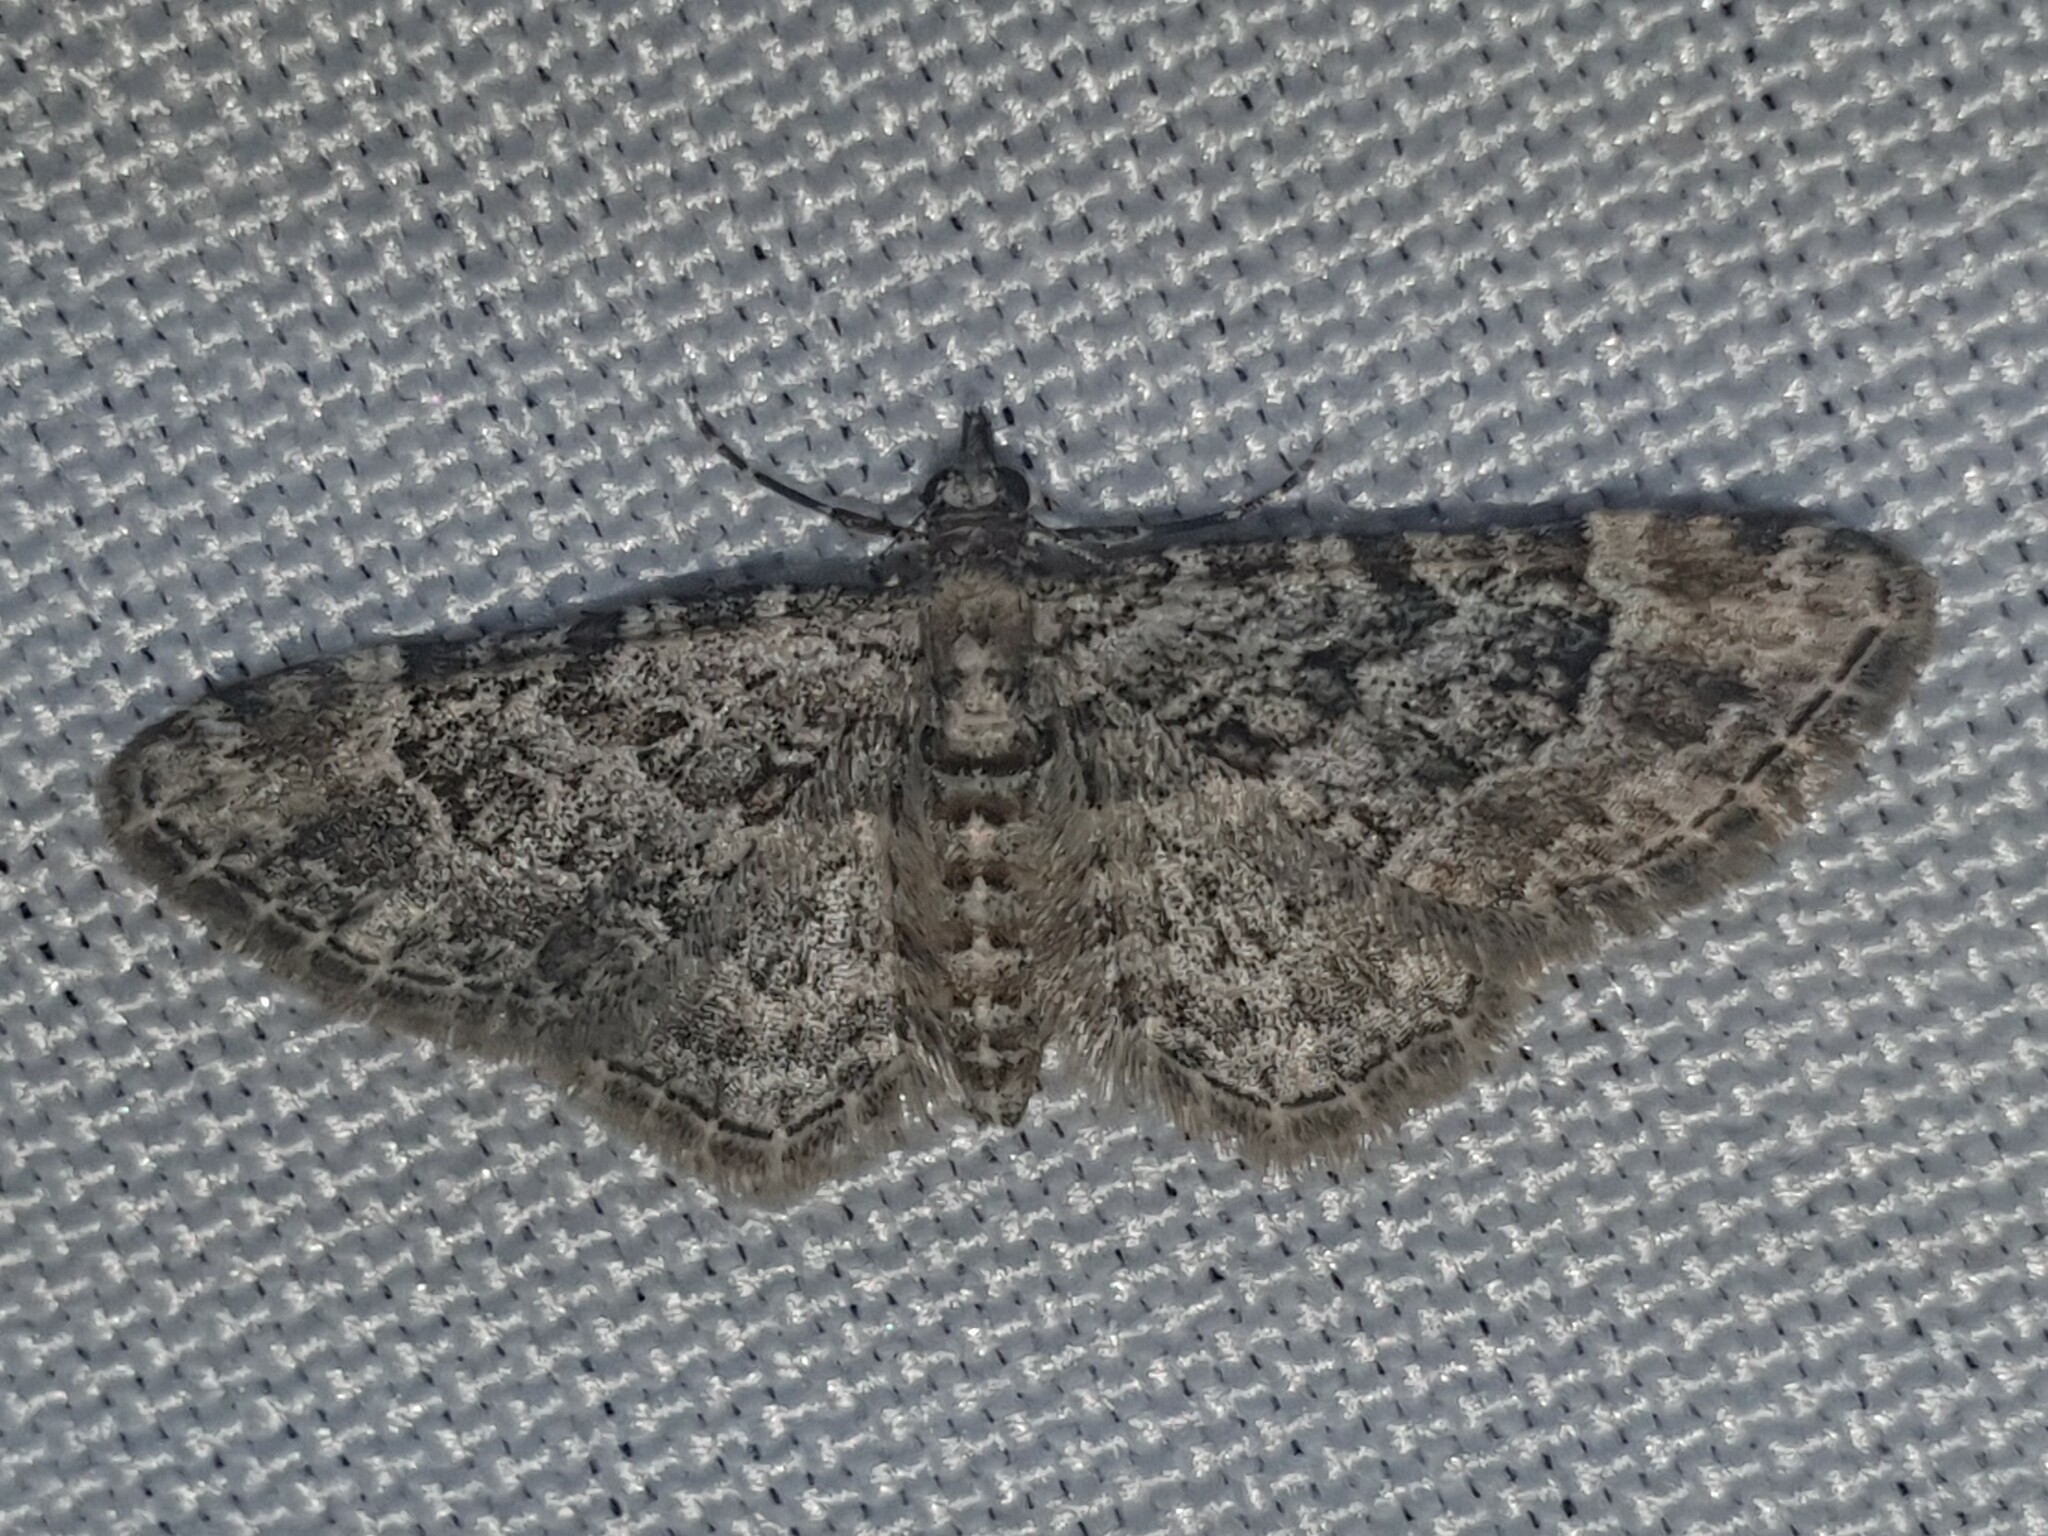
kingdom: Animalia
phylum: Arthropoda
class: Insecta
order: Lepidoptera
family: Geometridae
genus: Gymnoscelis
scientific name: Gymnoscelis rufifasciata
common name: Double-striped pug
